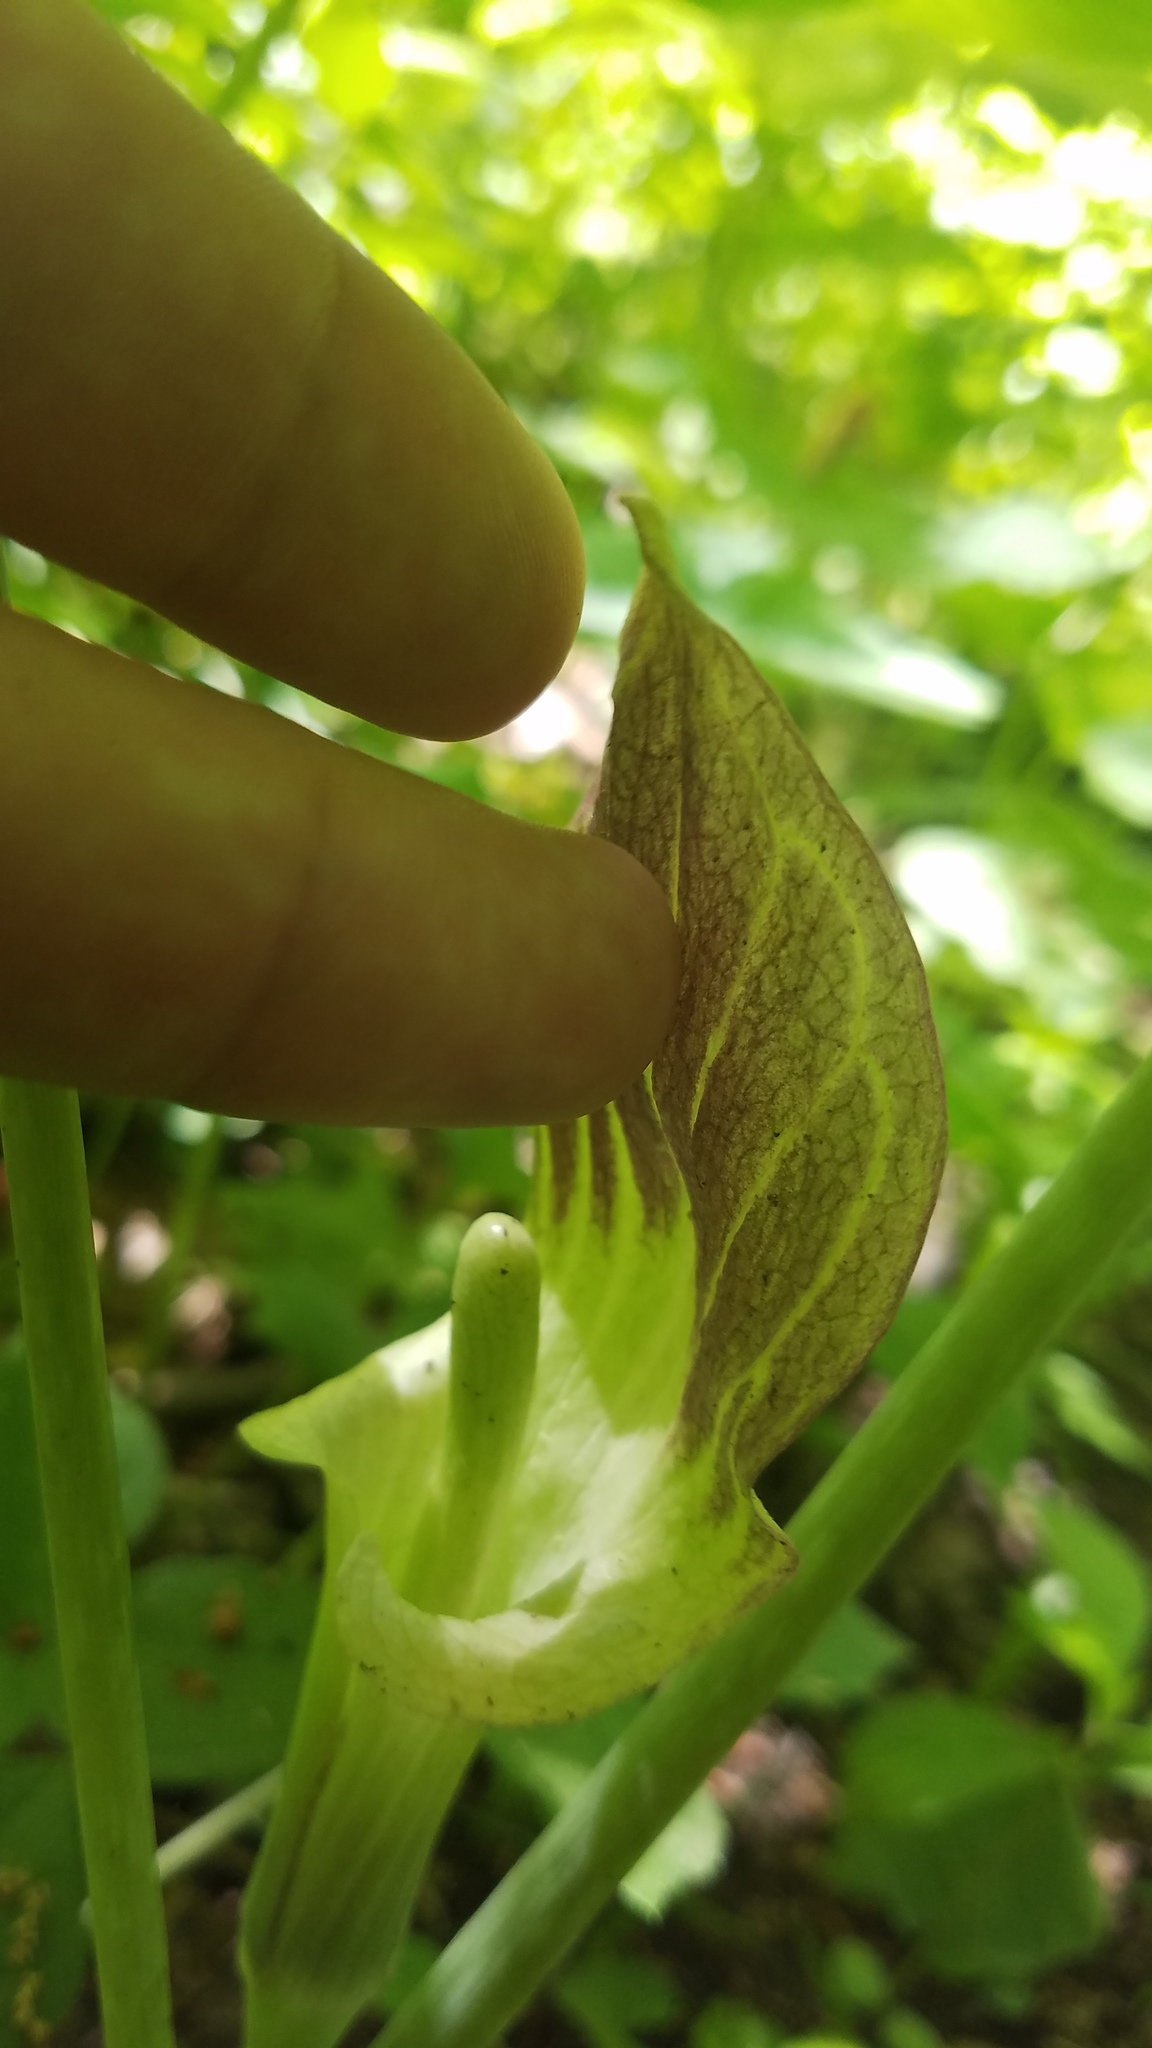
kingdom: Plantae
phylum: Tracheophyta
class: Liliopsida
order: Alismatales
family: Araceae
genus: Arisaema
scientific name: Arisaema triphyllum
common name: Jack-in-the-pulpit
